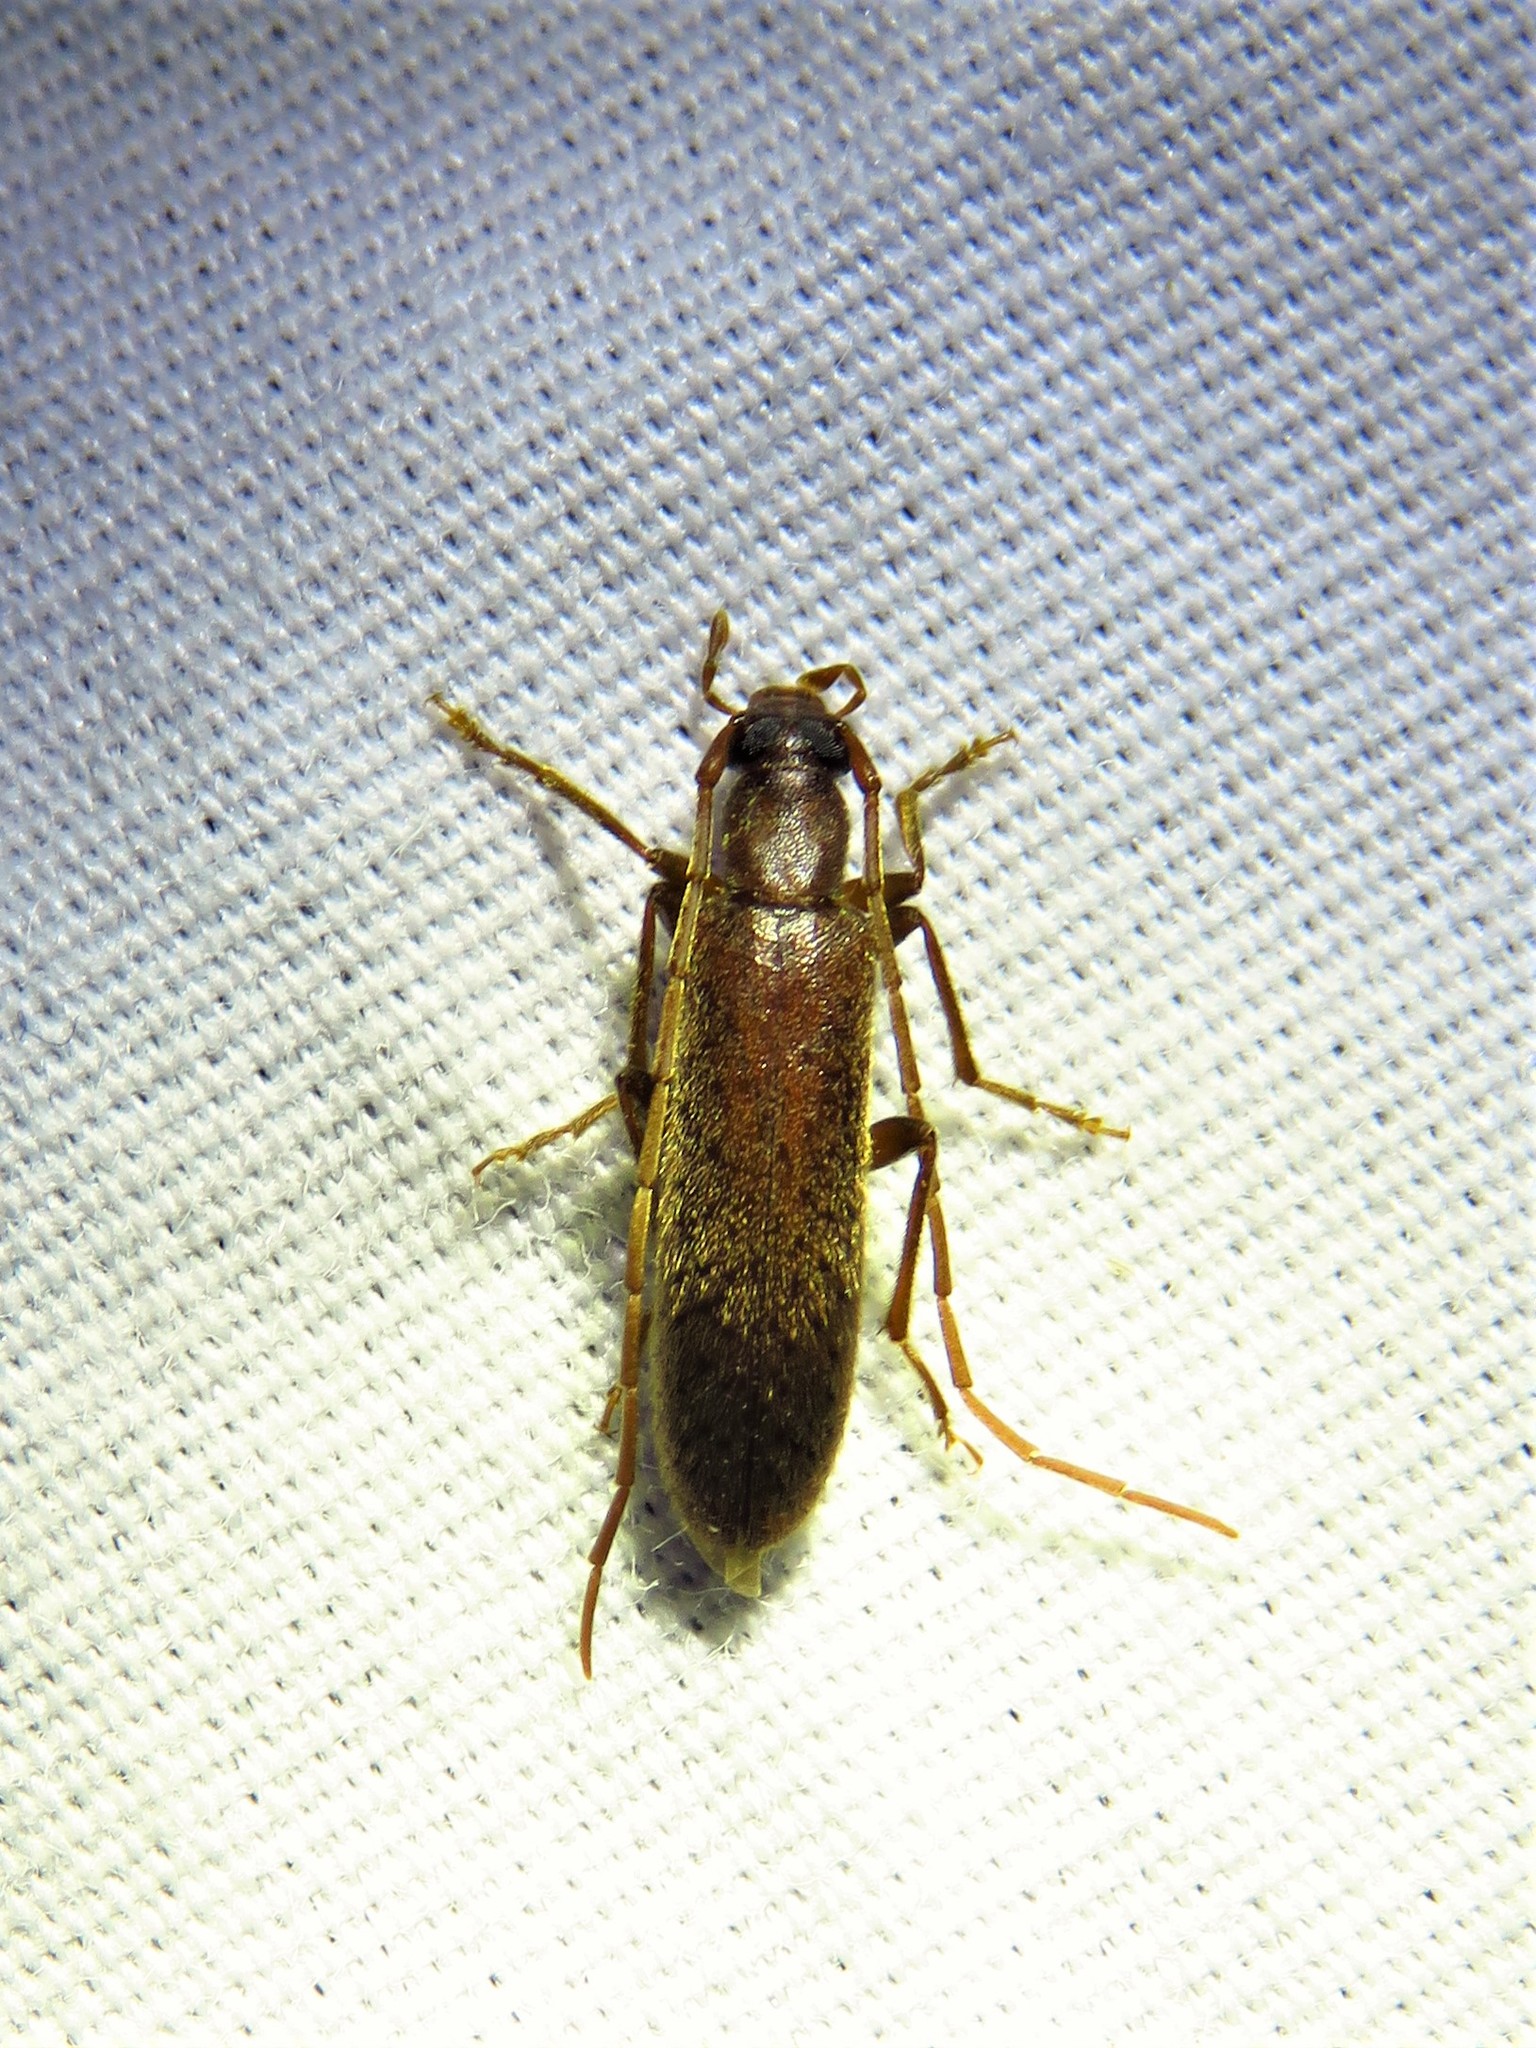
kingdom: Animalia
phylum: Arthropoda
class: Insecta
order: Coleoptera
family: Oedemeridae
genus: Sparedrus
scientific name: Sparedrus aspersus
